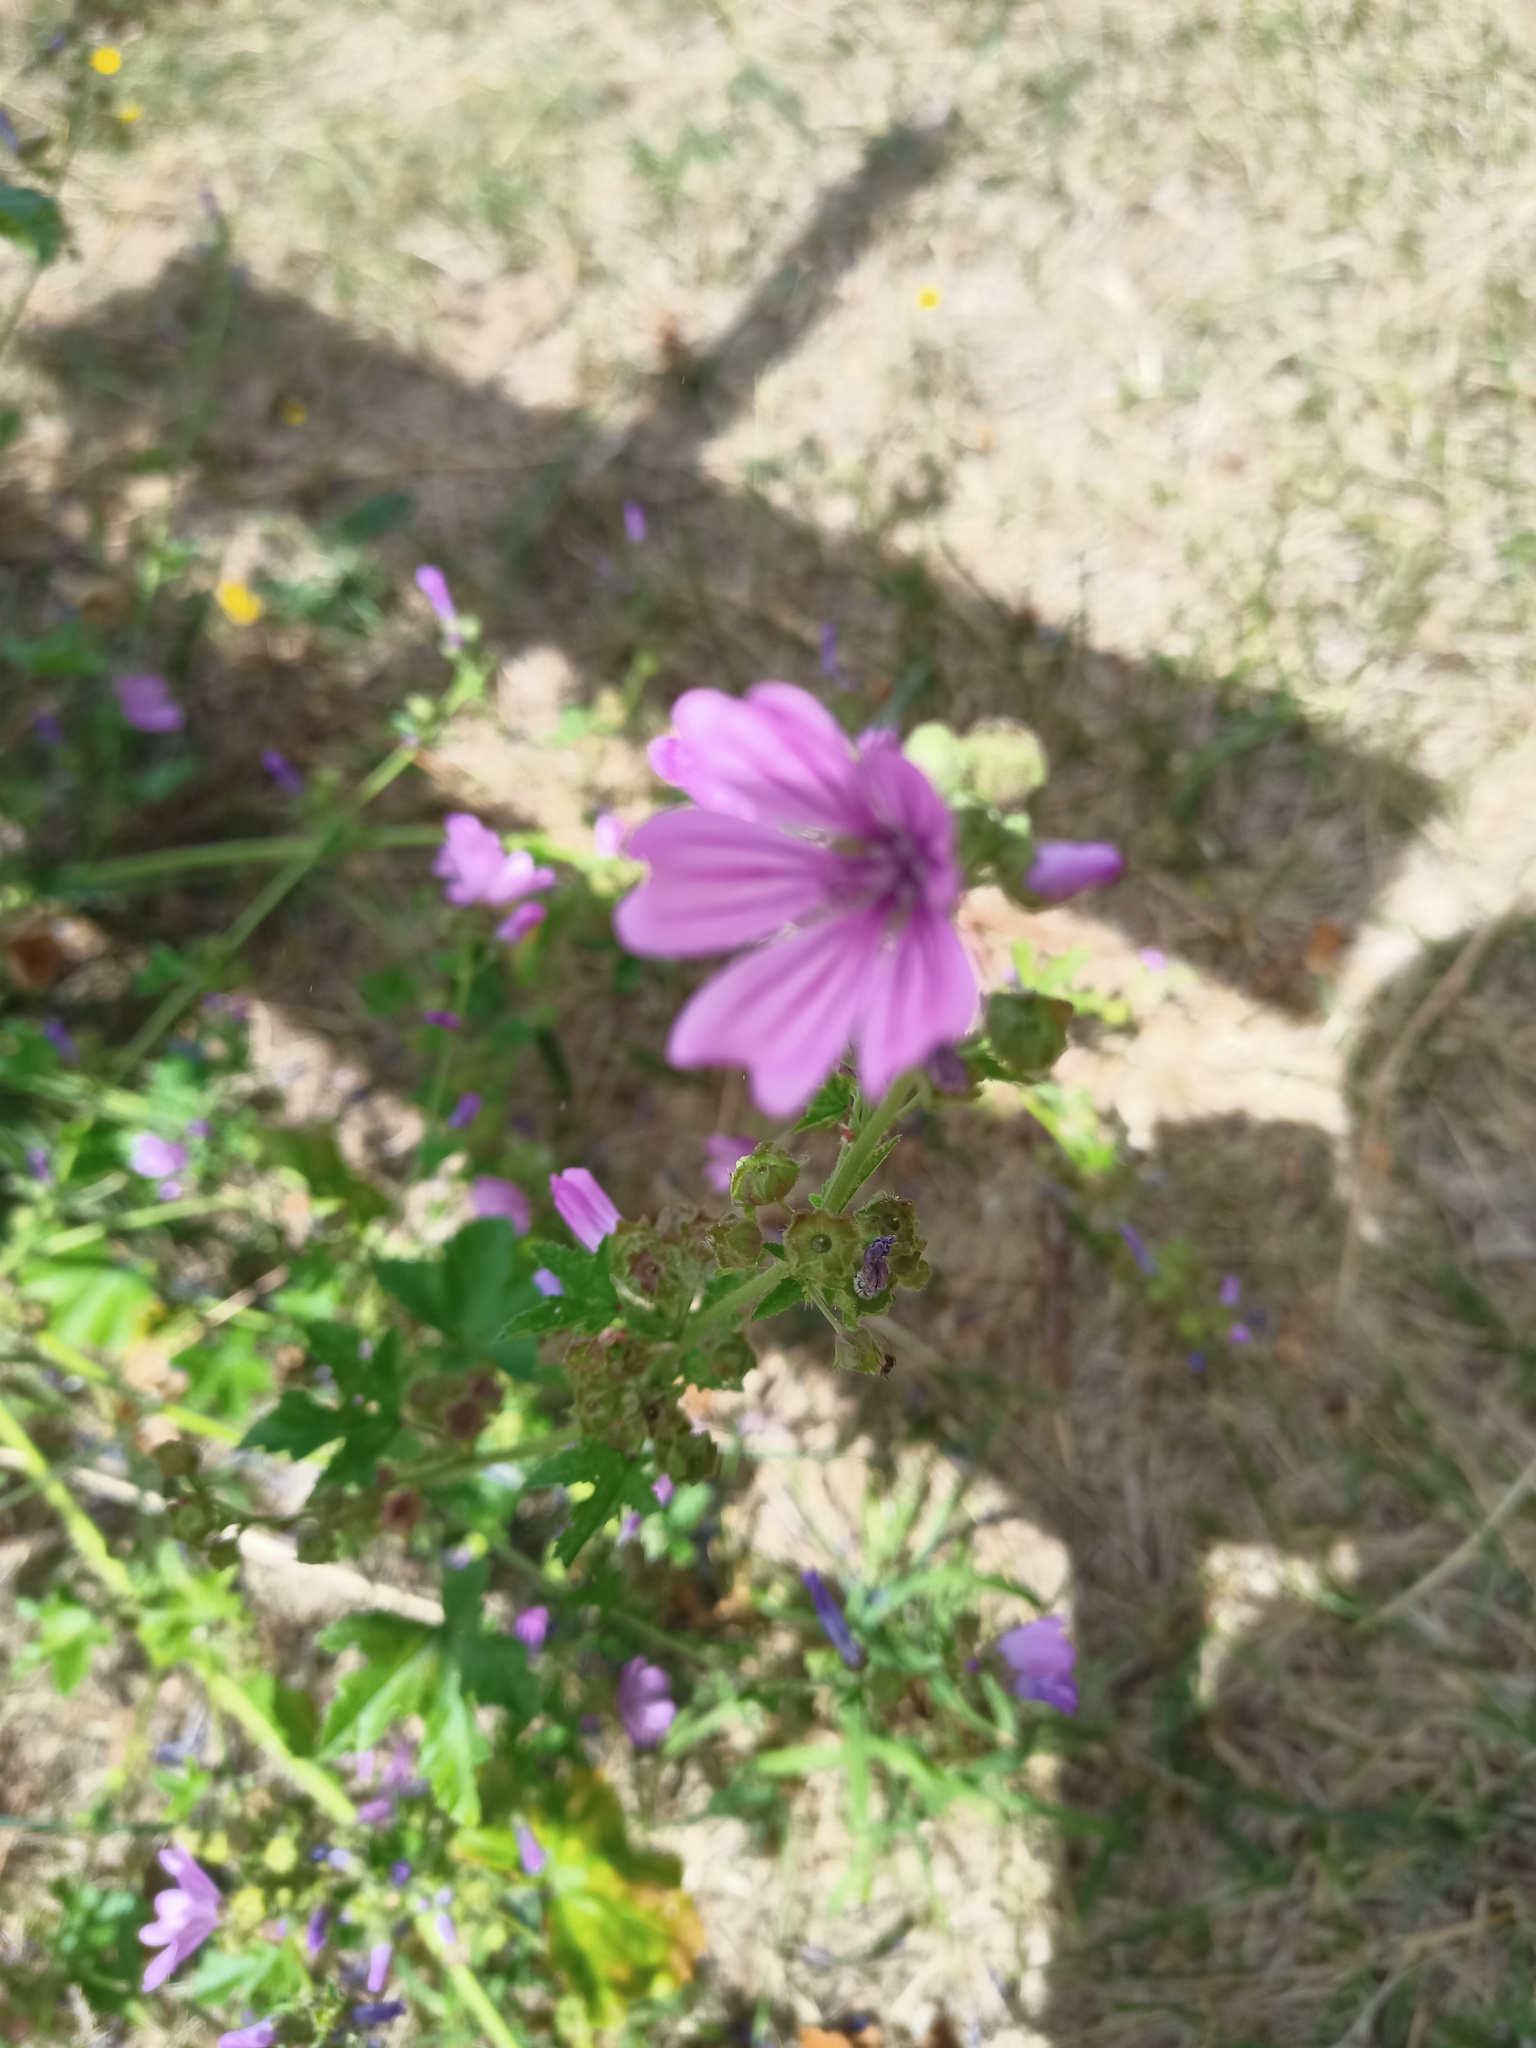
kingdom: Plantae
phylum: Tracheophyta
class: Magnoliopsida
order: Malvales
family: Malvaceae
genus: Malva
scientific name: Malva sylvestris
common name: Common mallow
